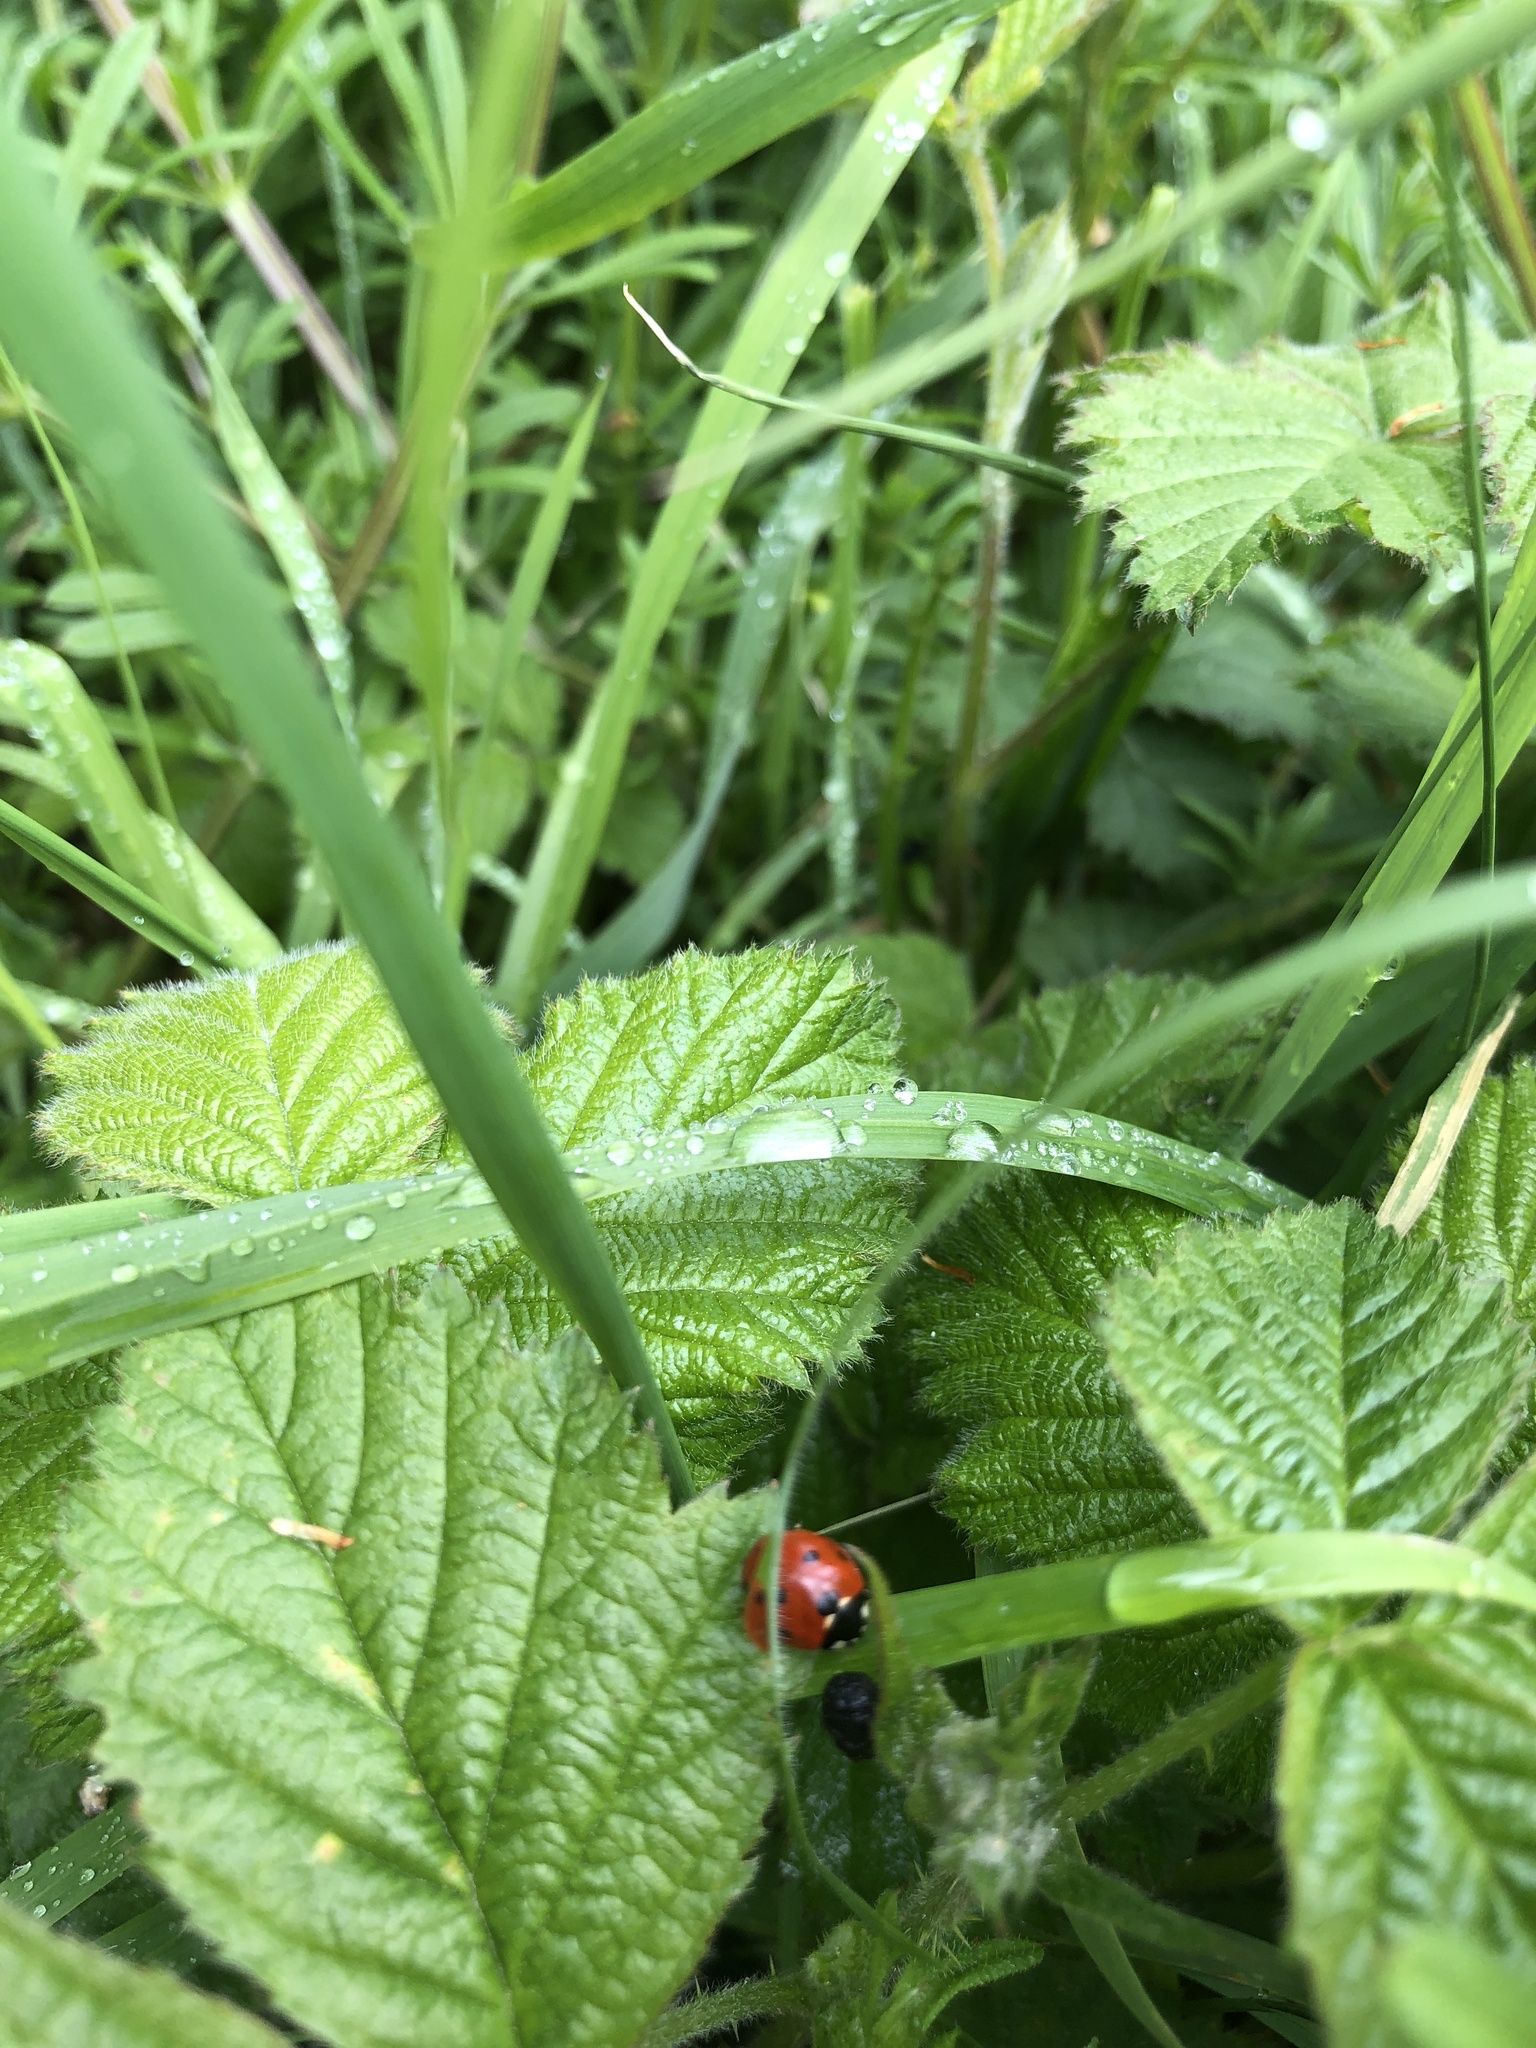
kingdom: Animalia
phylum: Arthropoda
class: Insecta
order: Coleoptera
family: Coccinellidae
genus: Coccinella
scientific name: Coccinella septempunctata
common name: Sevenspotted lady beetle
